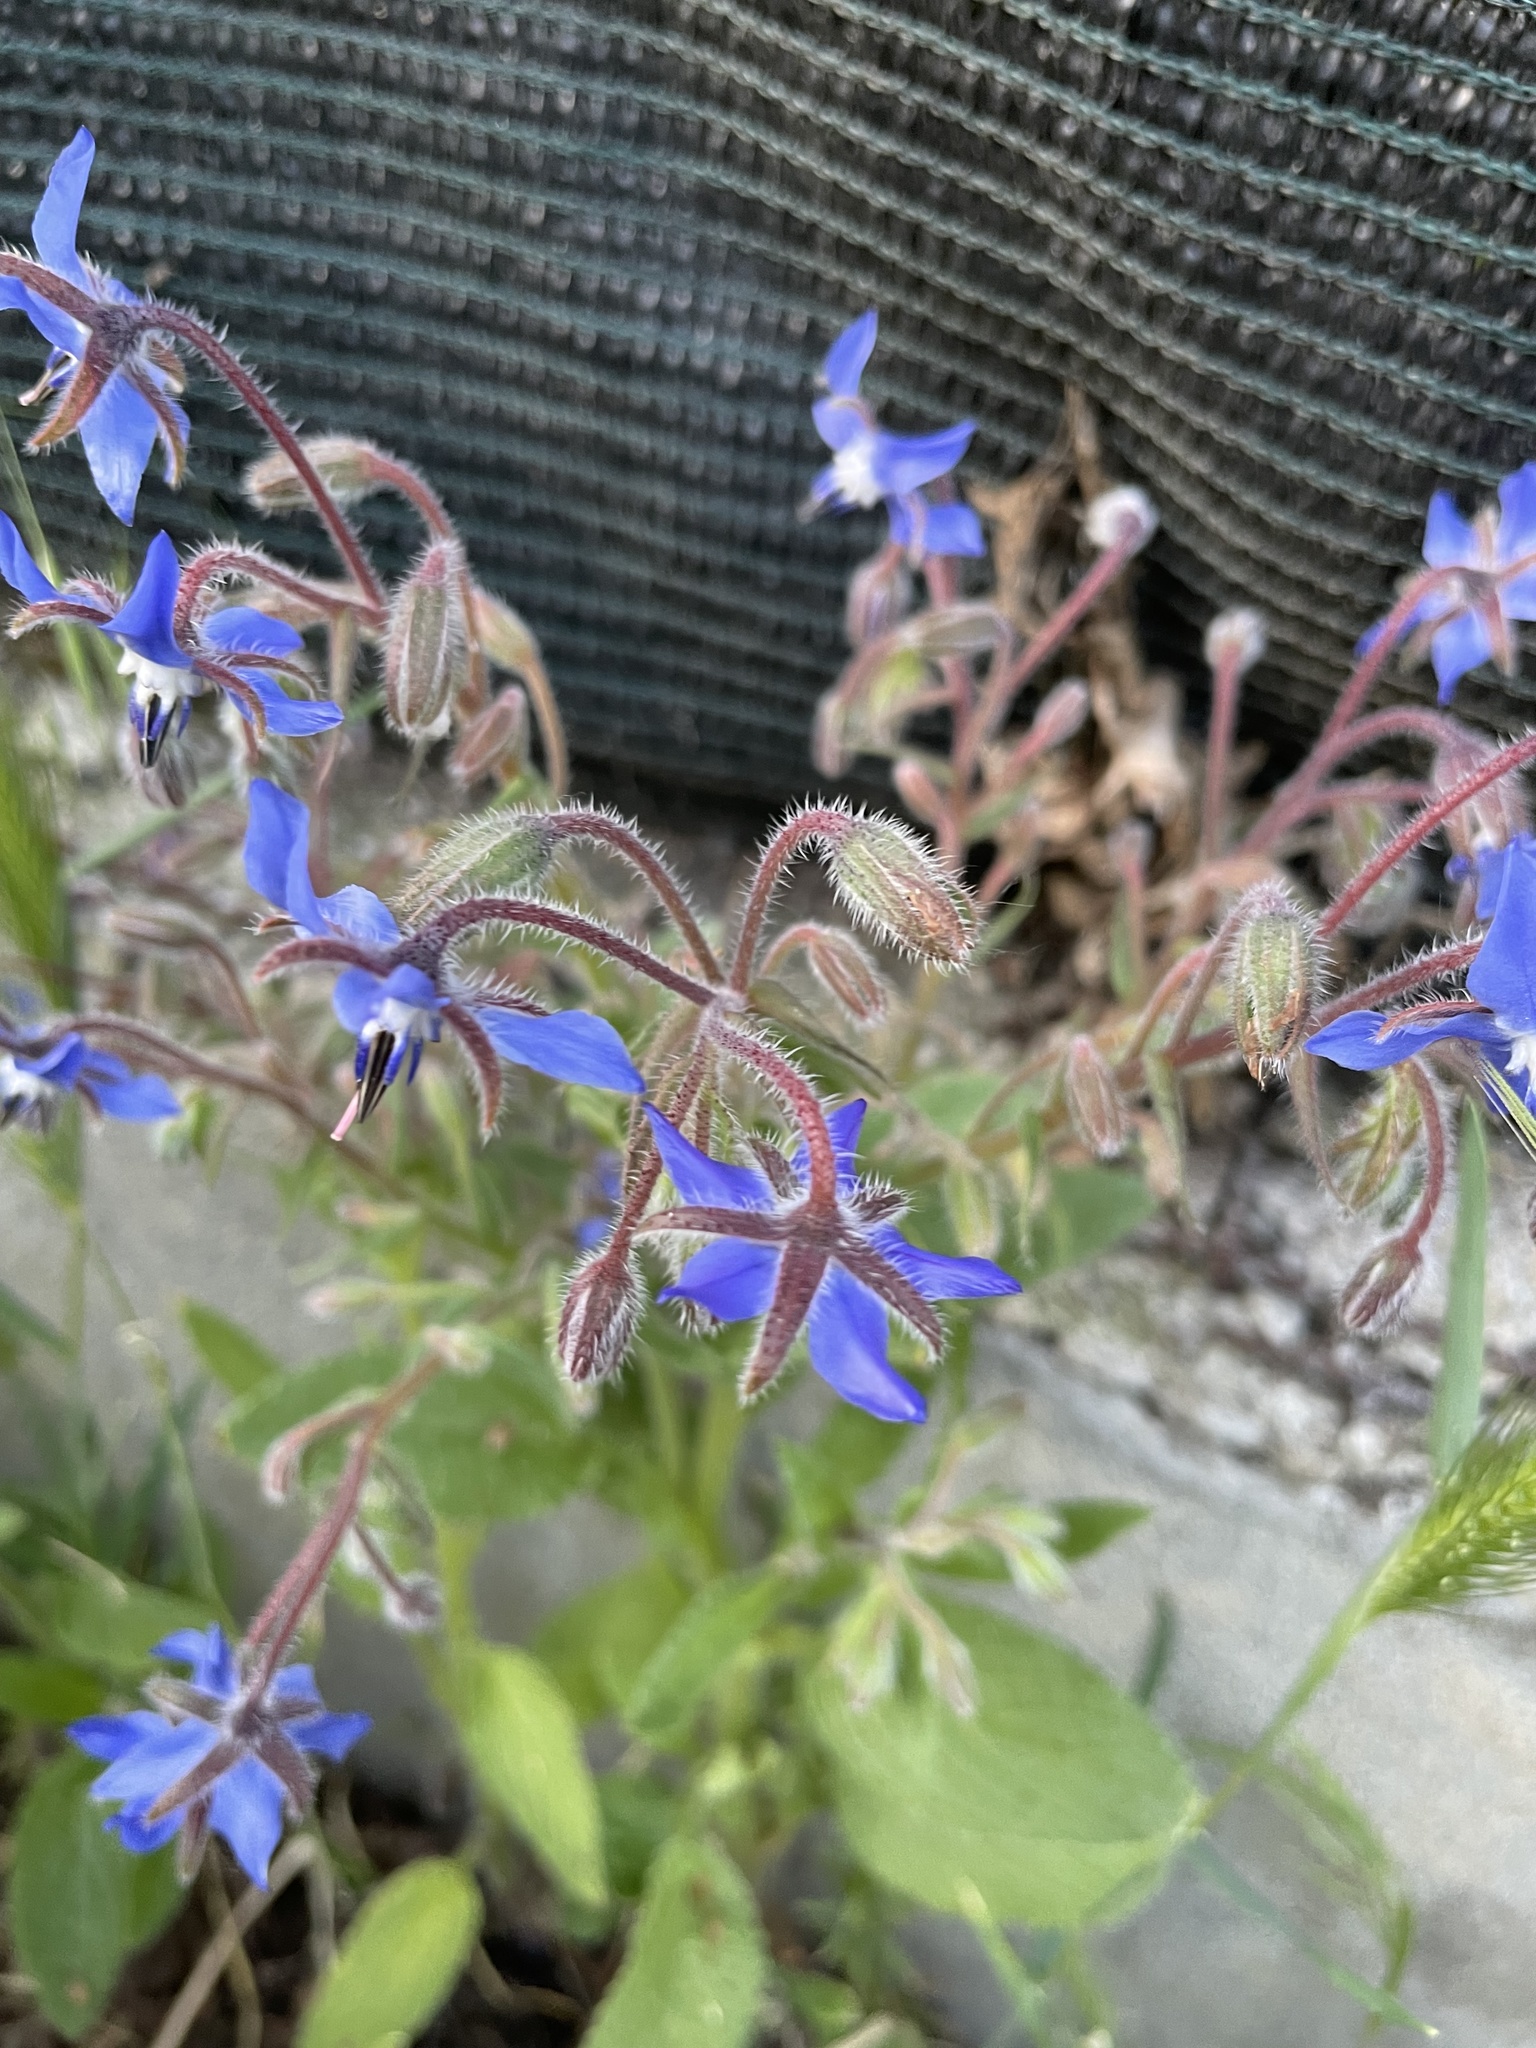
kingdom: Plantae
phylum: Tracheophyta
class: Magnoliopsida
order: Boraginales
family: Boraginaceae
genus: Borago
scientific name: Borago officinalis
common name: Borage
